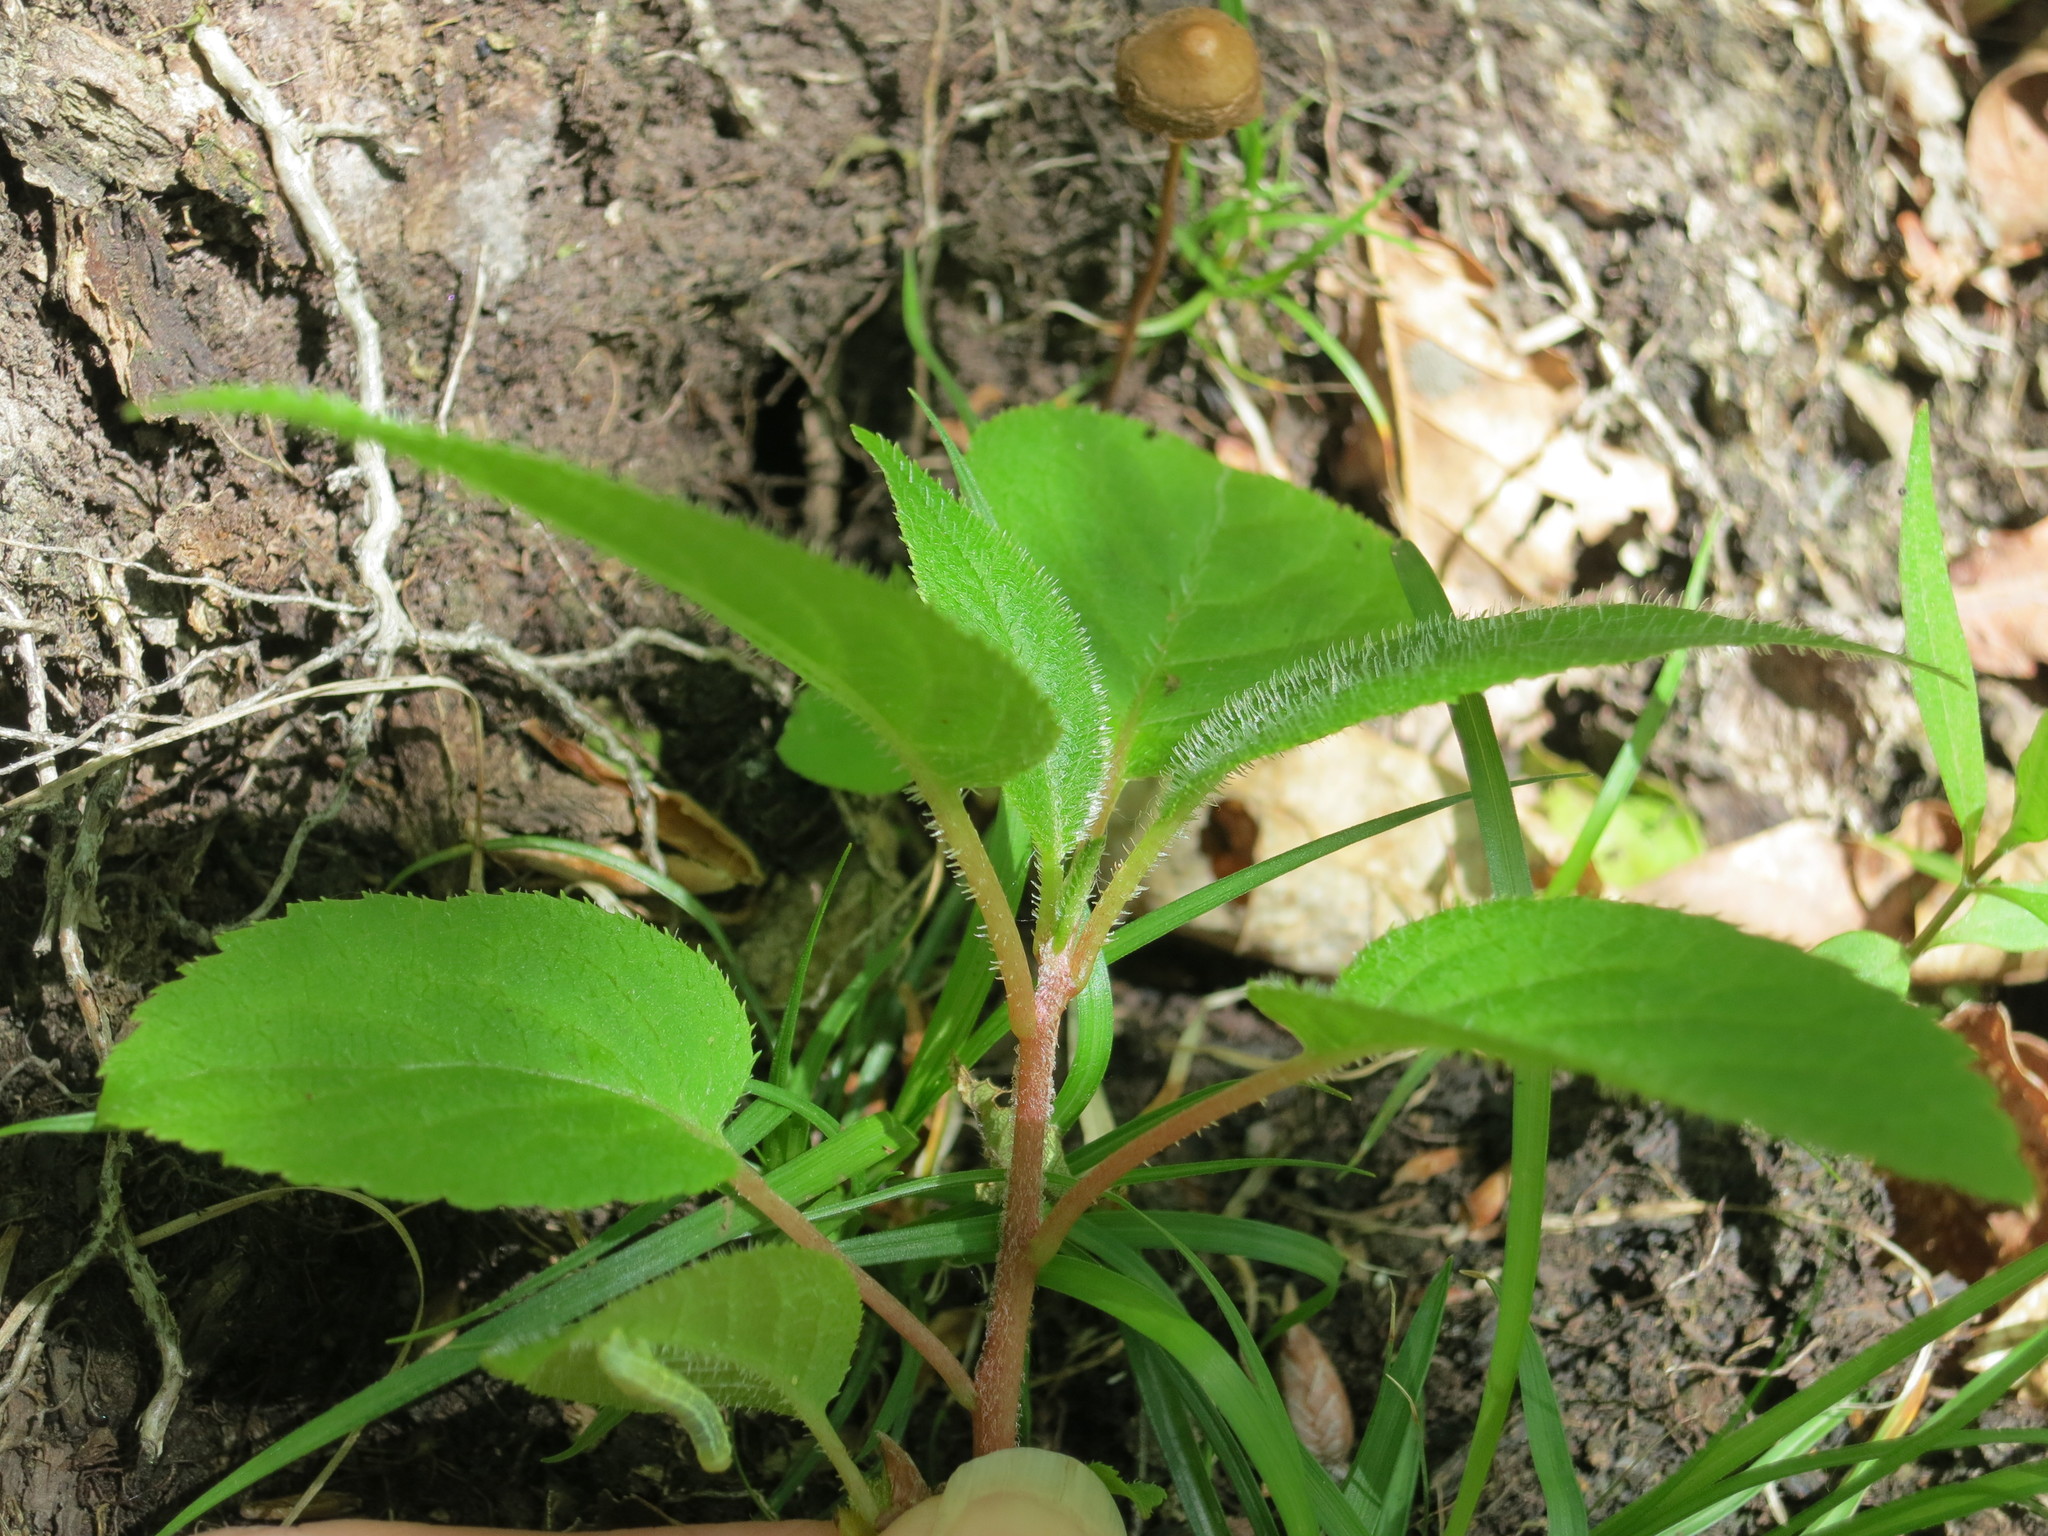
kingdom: Plantae
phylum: Tracheophyta
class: Magnoliopsida
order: Ericales
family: Actinidiaceae
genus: Actinidia
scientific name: Actinidia arguta
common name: Tara vine
